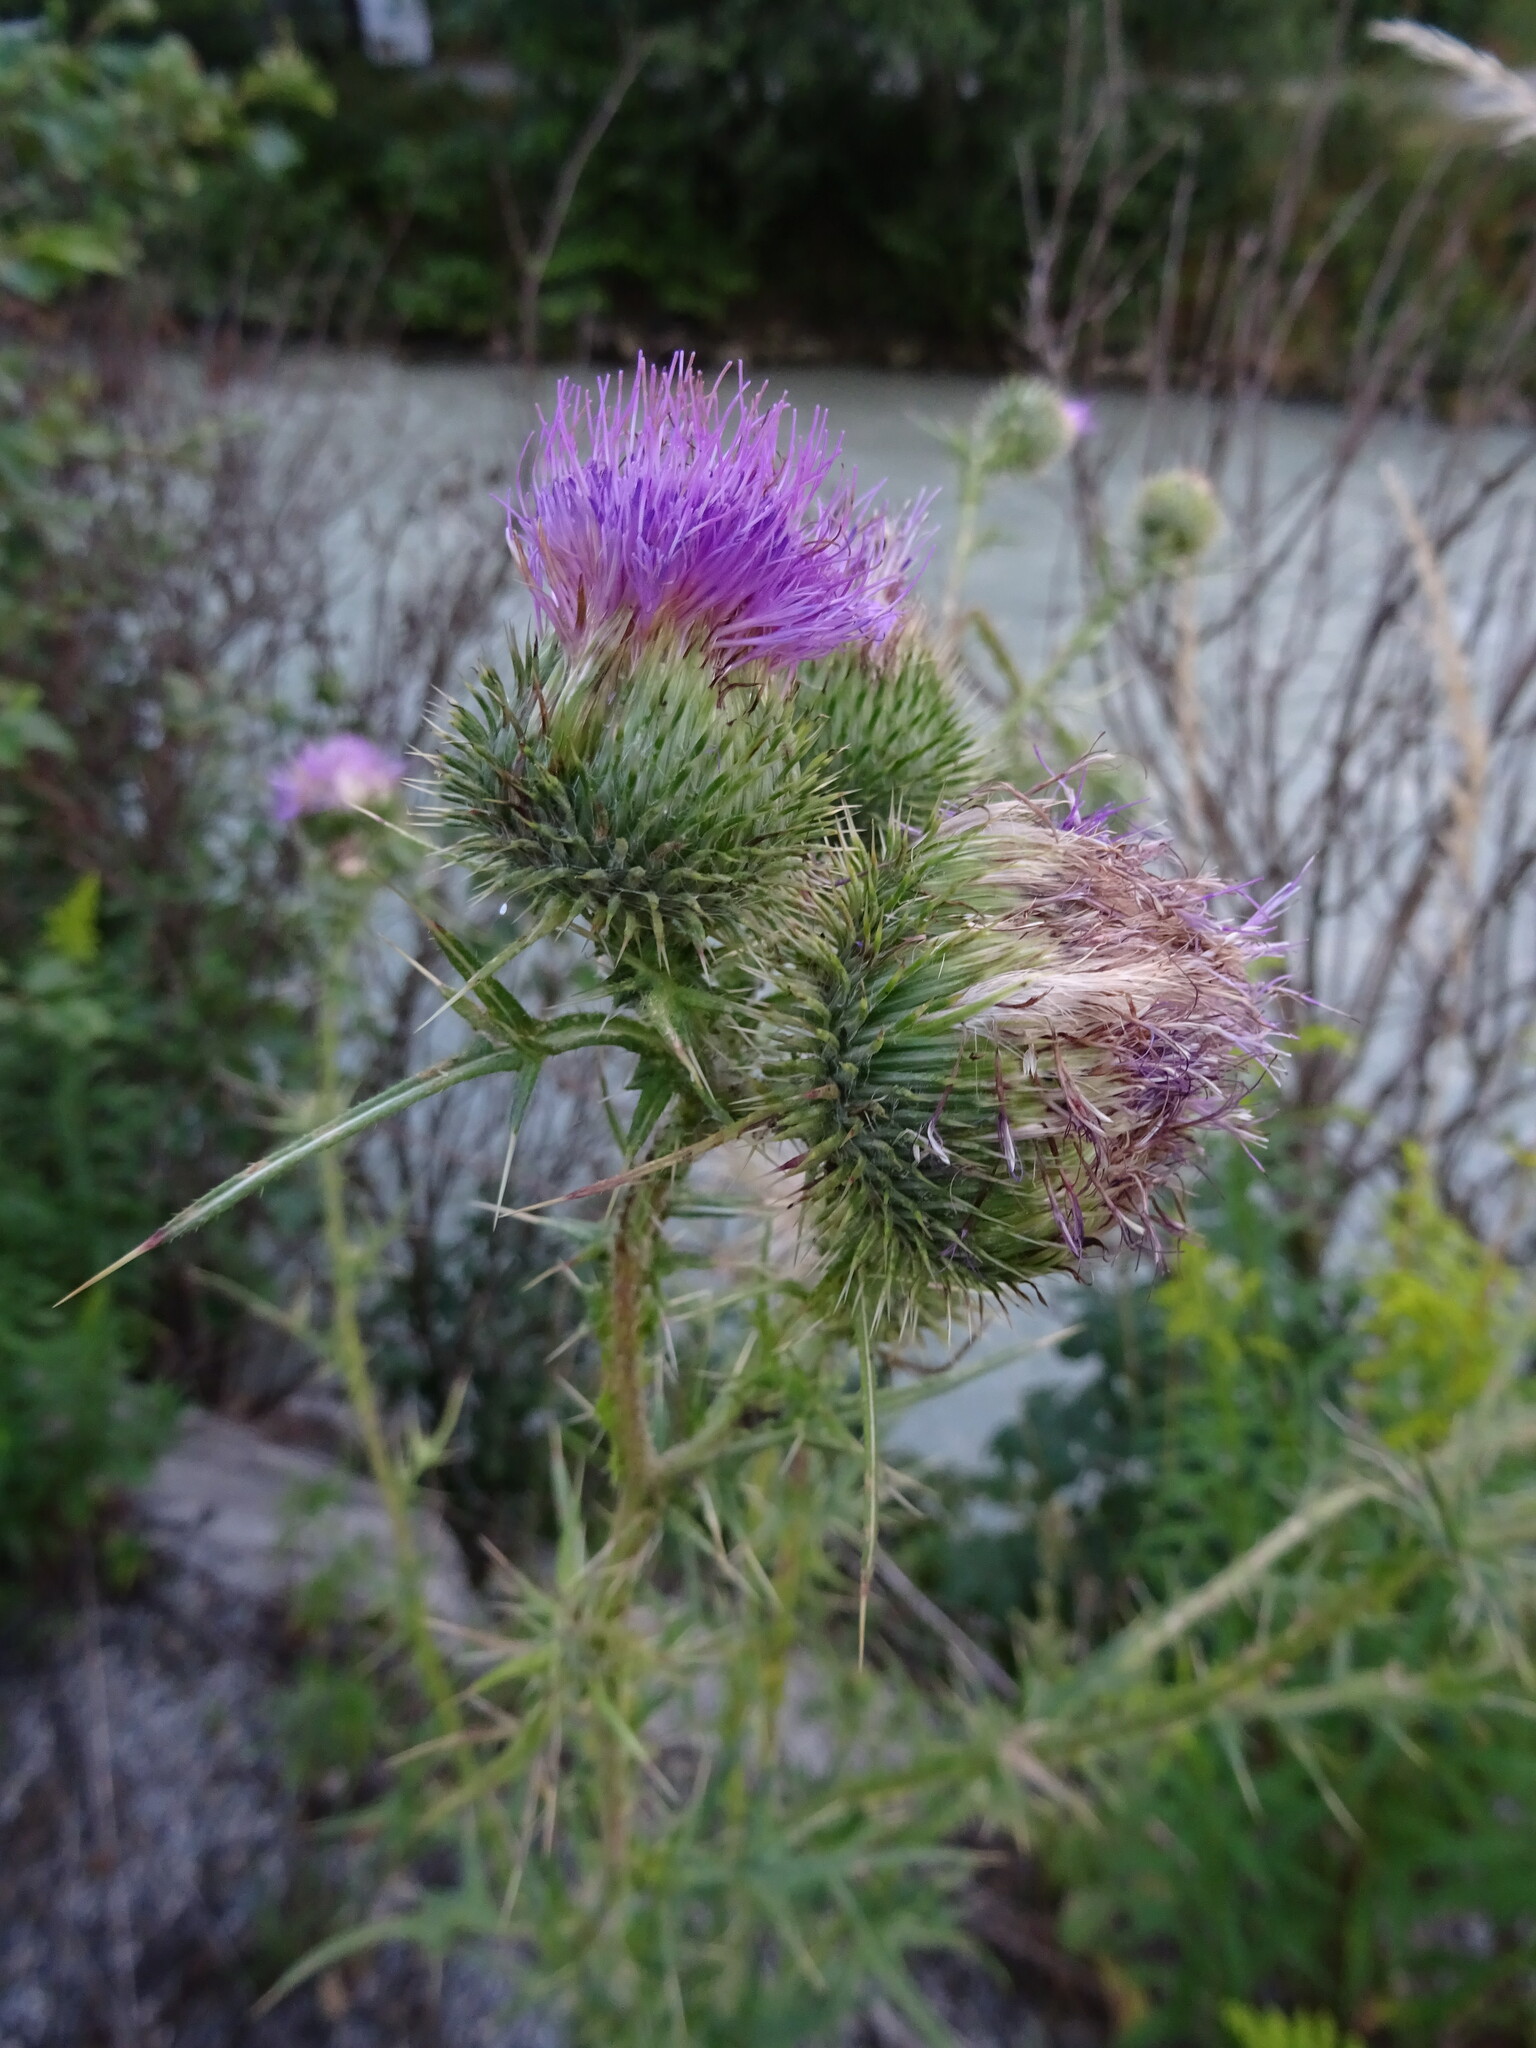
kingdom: Plantae
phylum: Tracheophyta
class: Magnoliopsida
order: Asterales
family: Asteraceae
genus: Cirsium
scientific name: Cirsium vulgare
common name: Bull thistle
